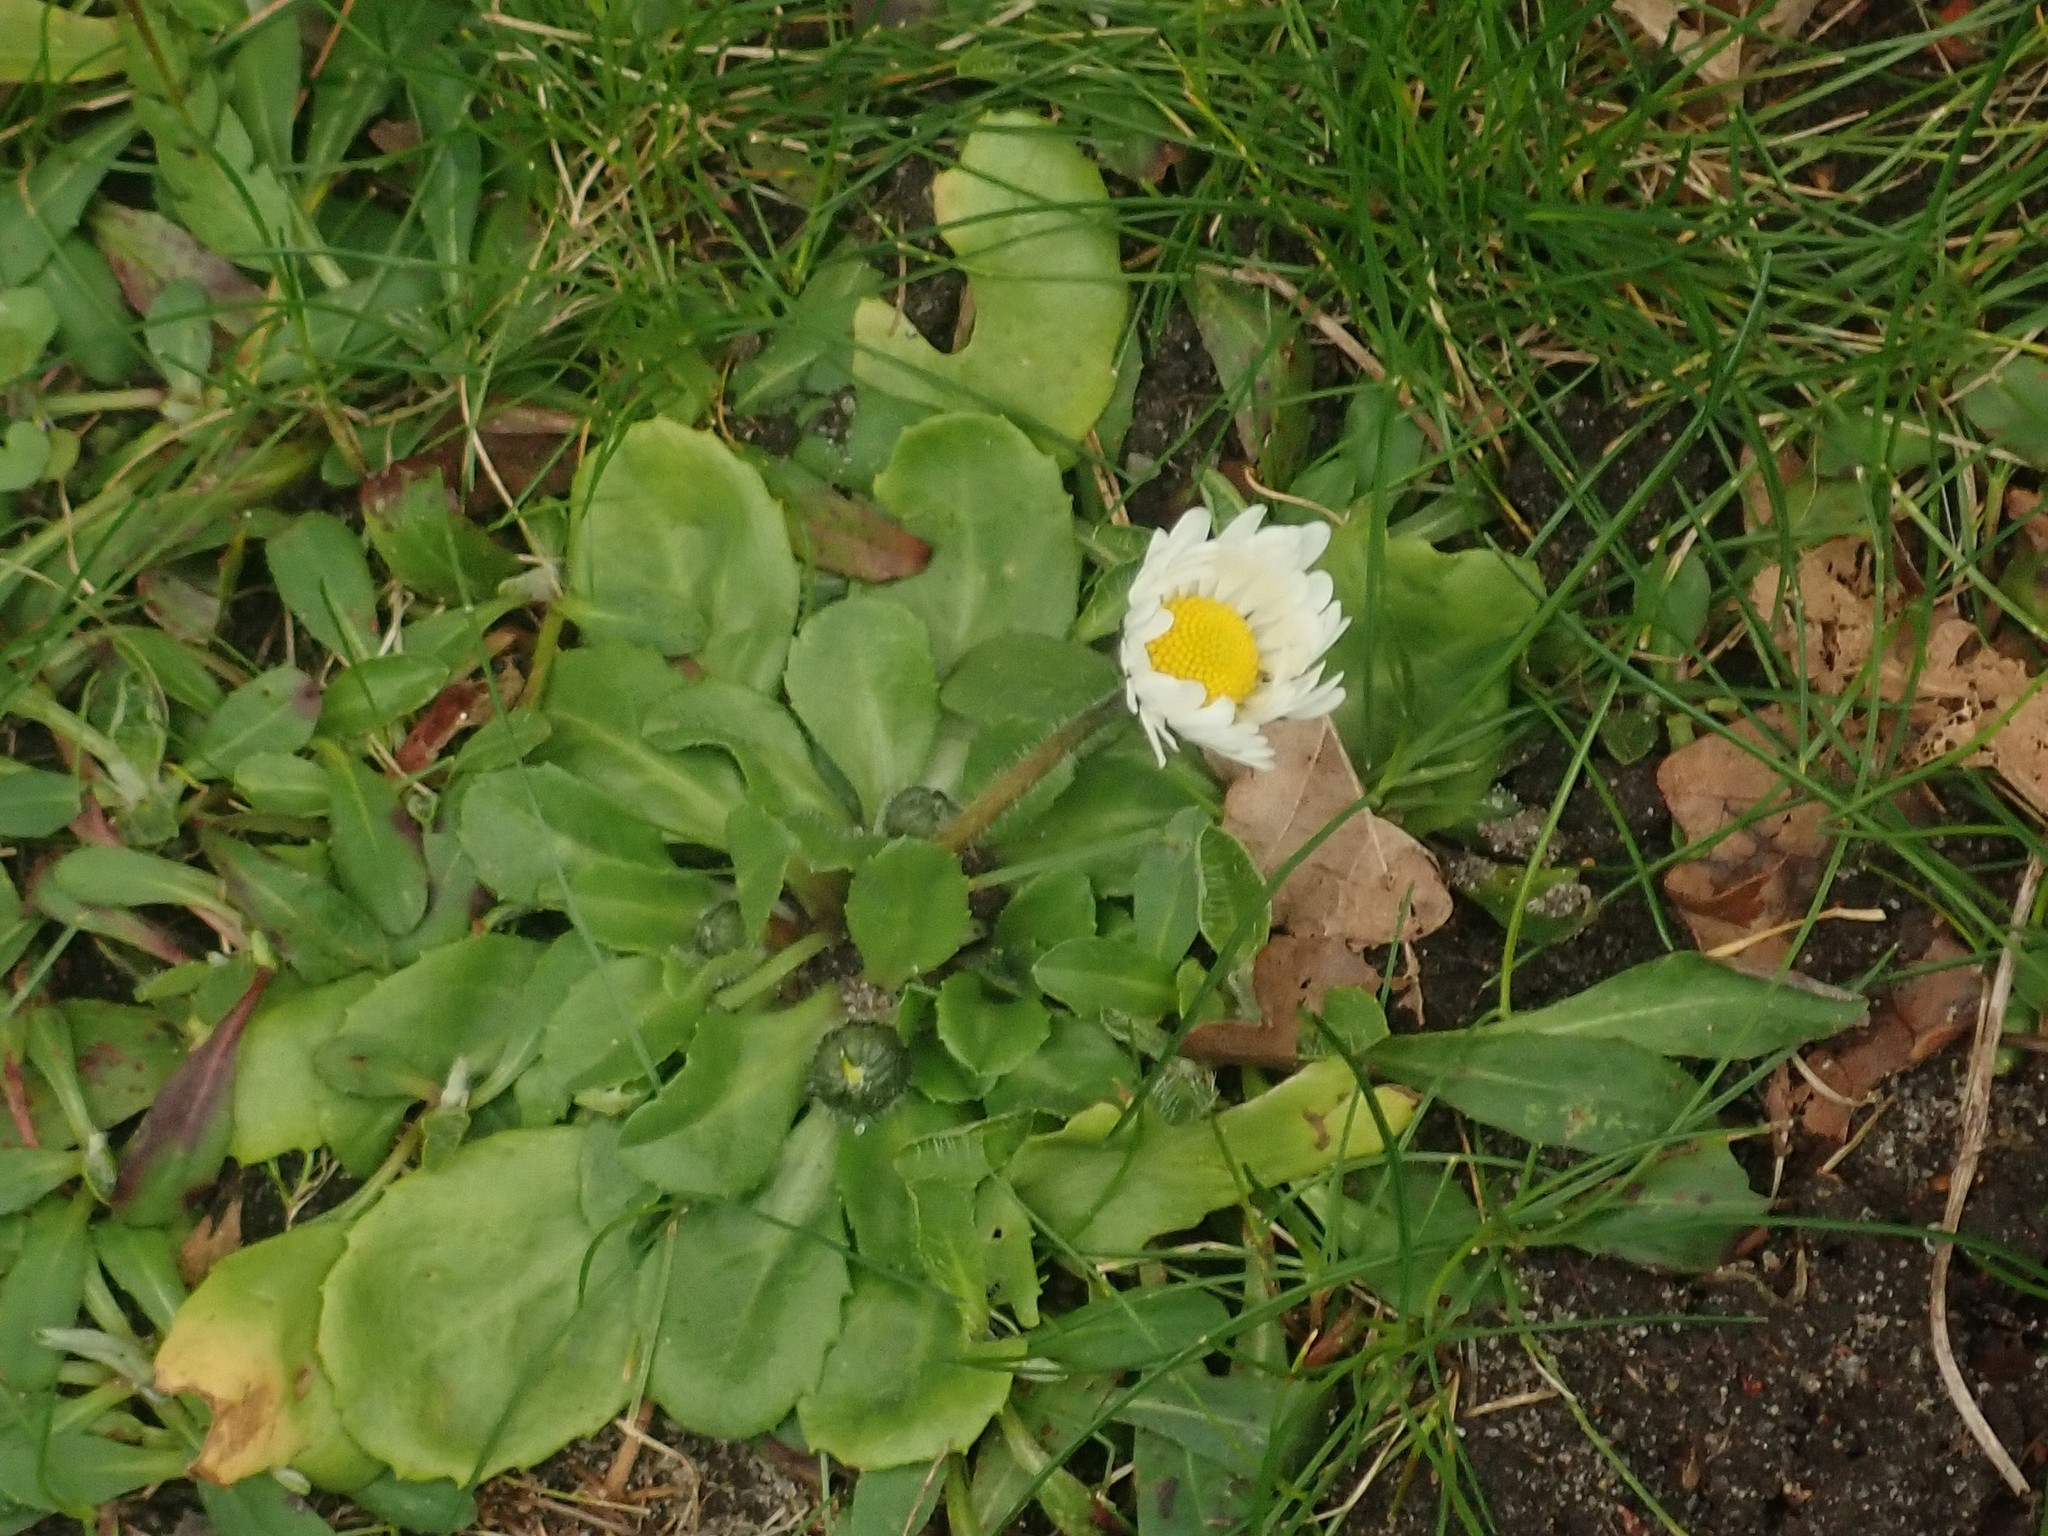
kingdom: Plantae
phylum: Tracheophyta
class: Magnoliopsida
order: Asterales
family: Asteraceae
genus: Bellis
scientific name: Bellis perennis
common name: Lawndaisy
